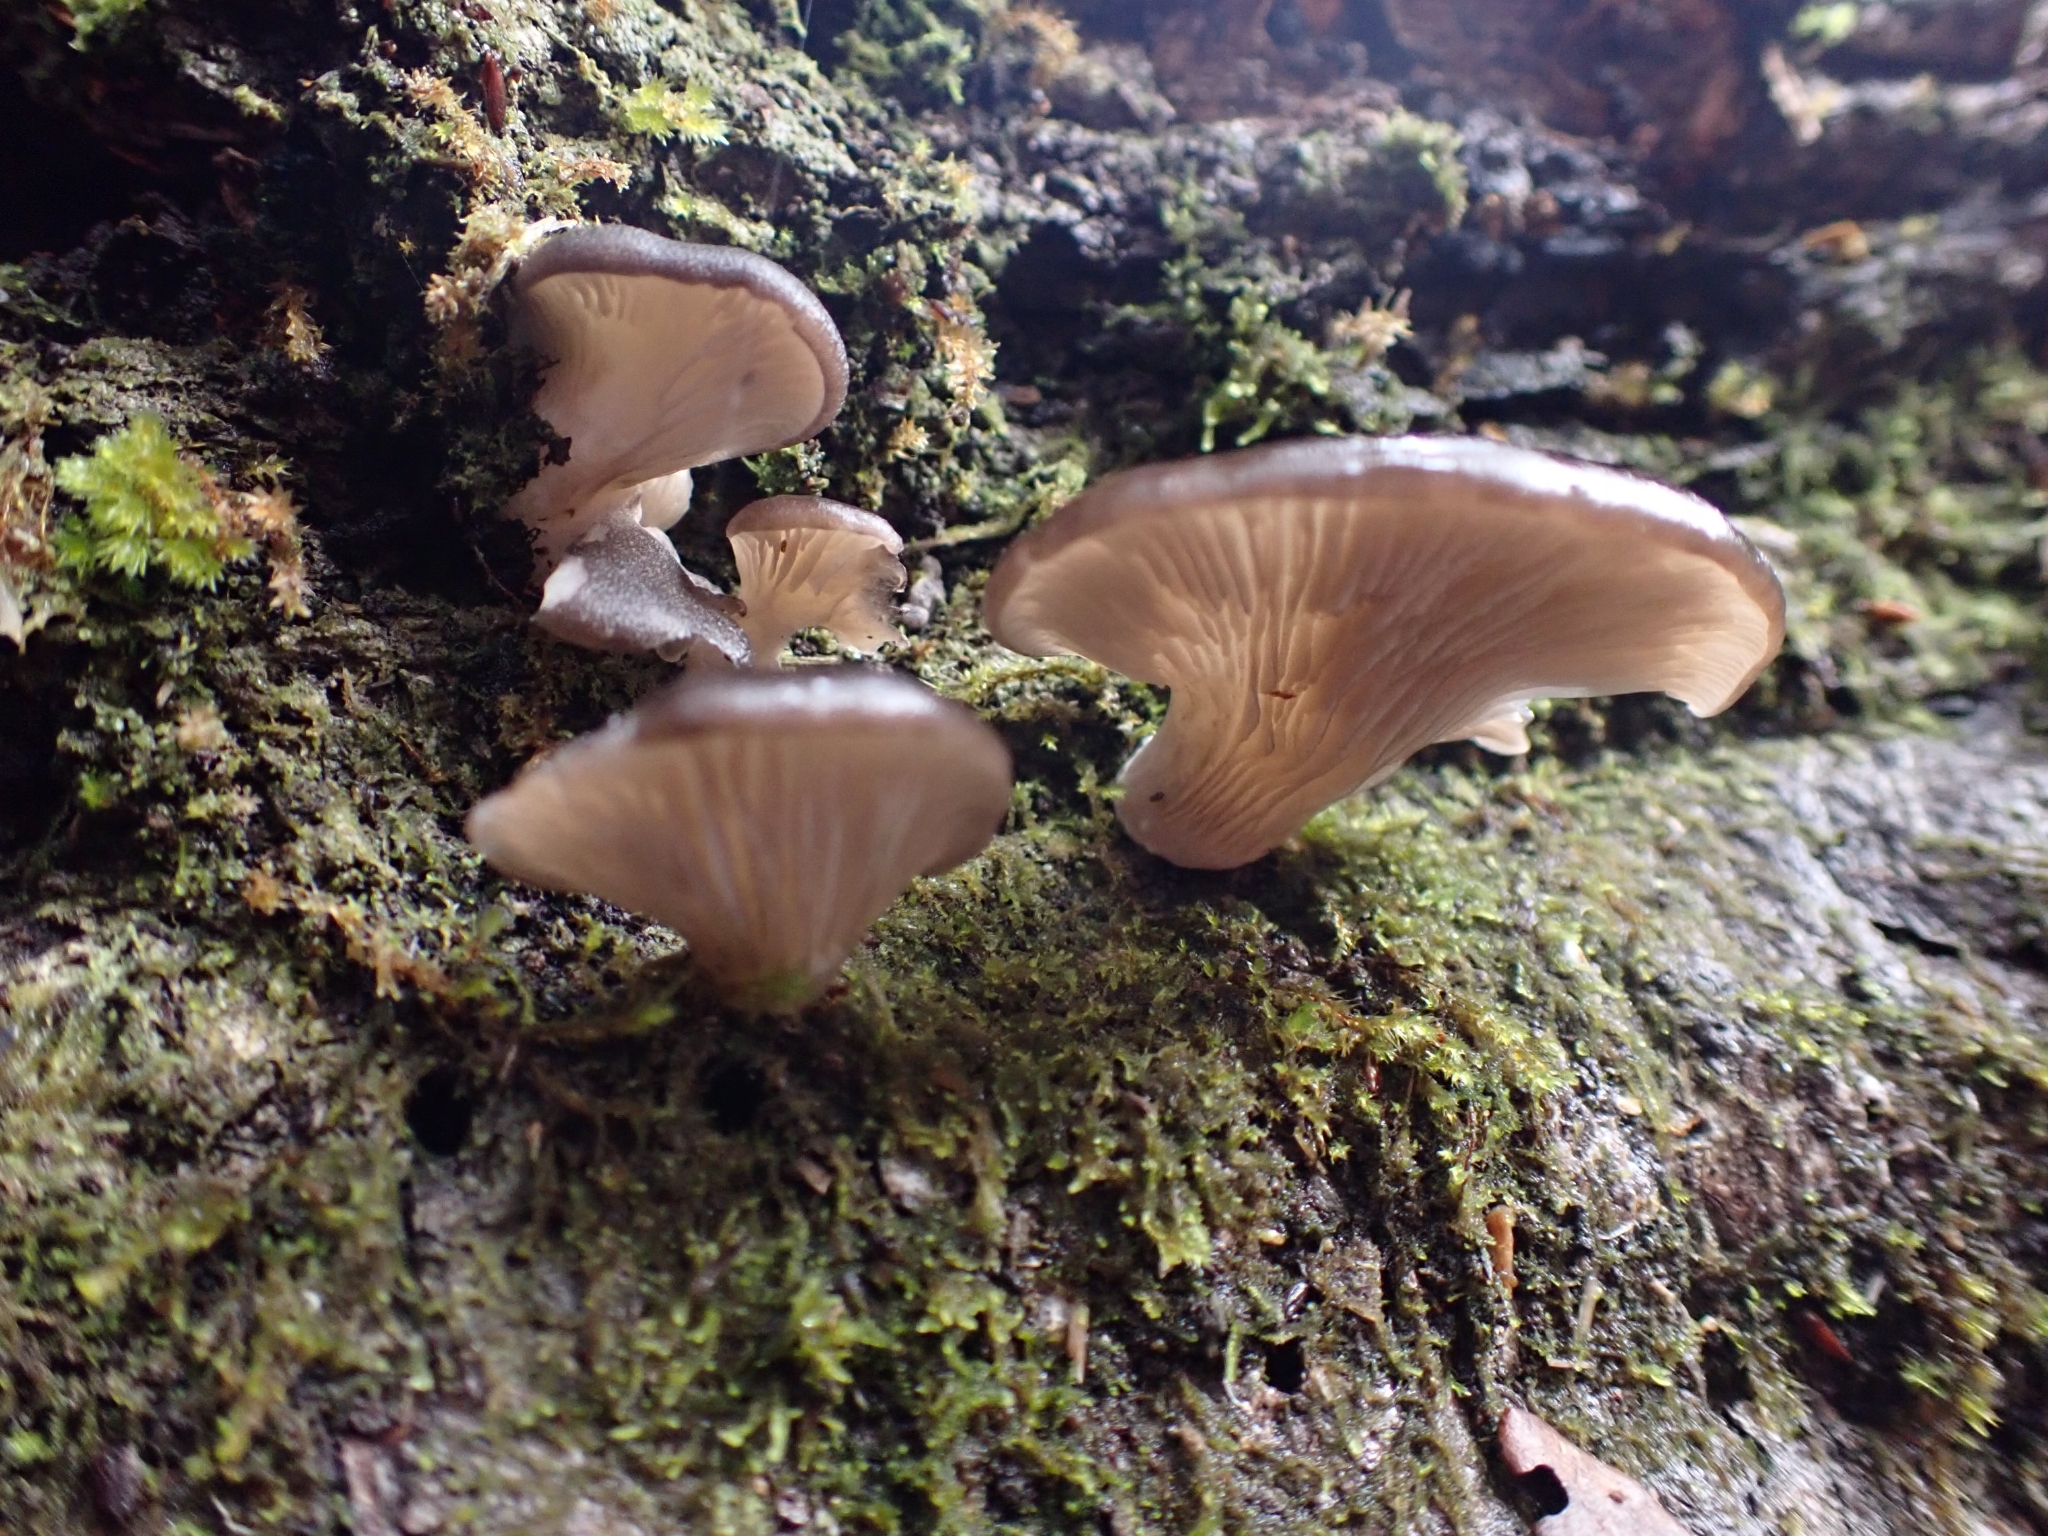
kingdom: Fungi
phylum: Basidiomycota
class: Agaricomycetes
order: Agaricales
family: Pleurotaceae
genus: Pleurotus
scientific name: Pleurotus purpureo-olivaceus
